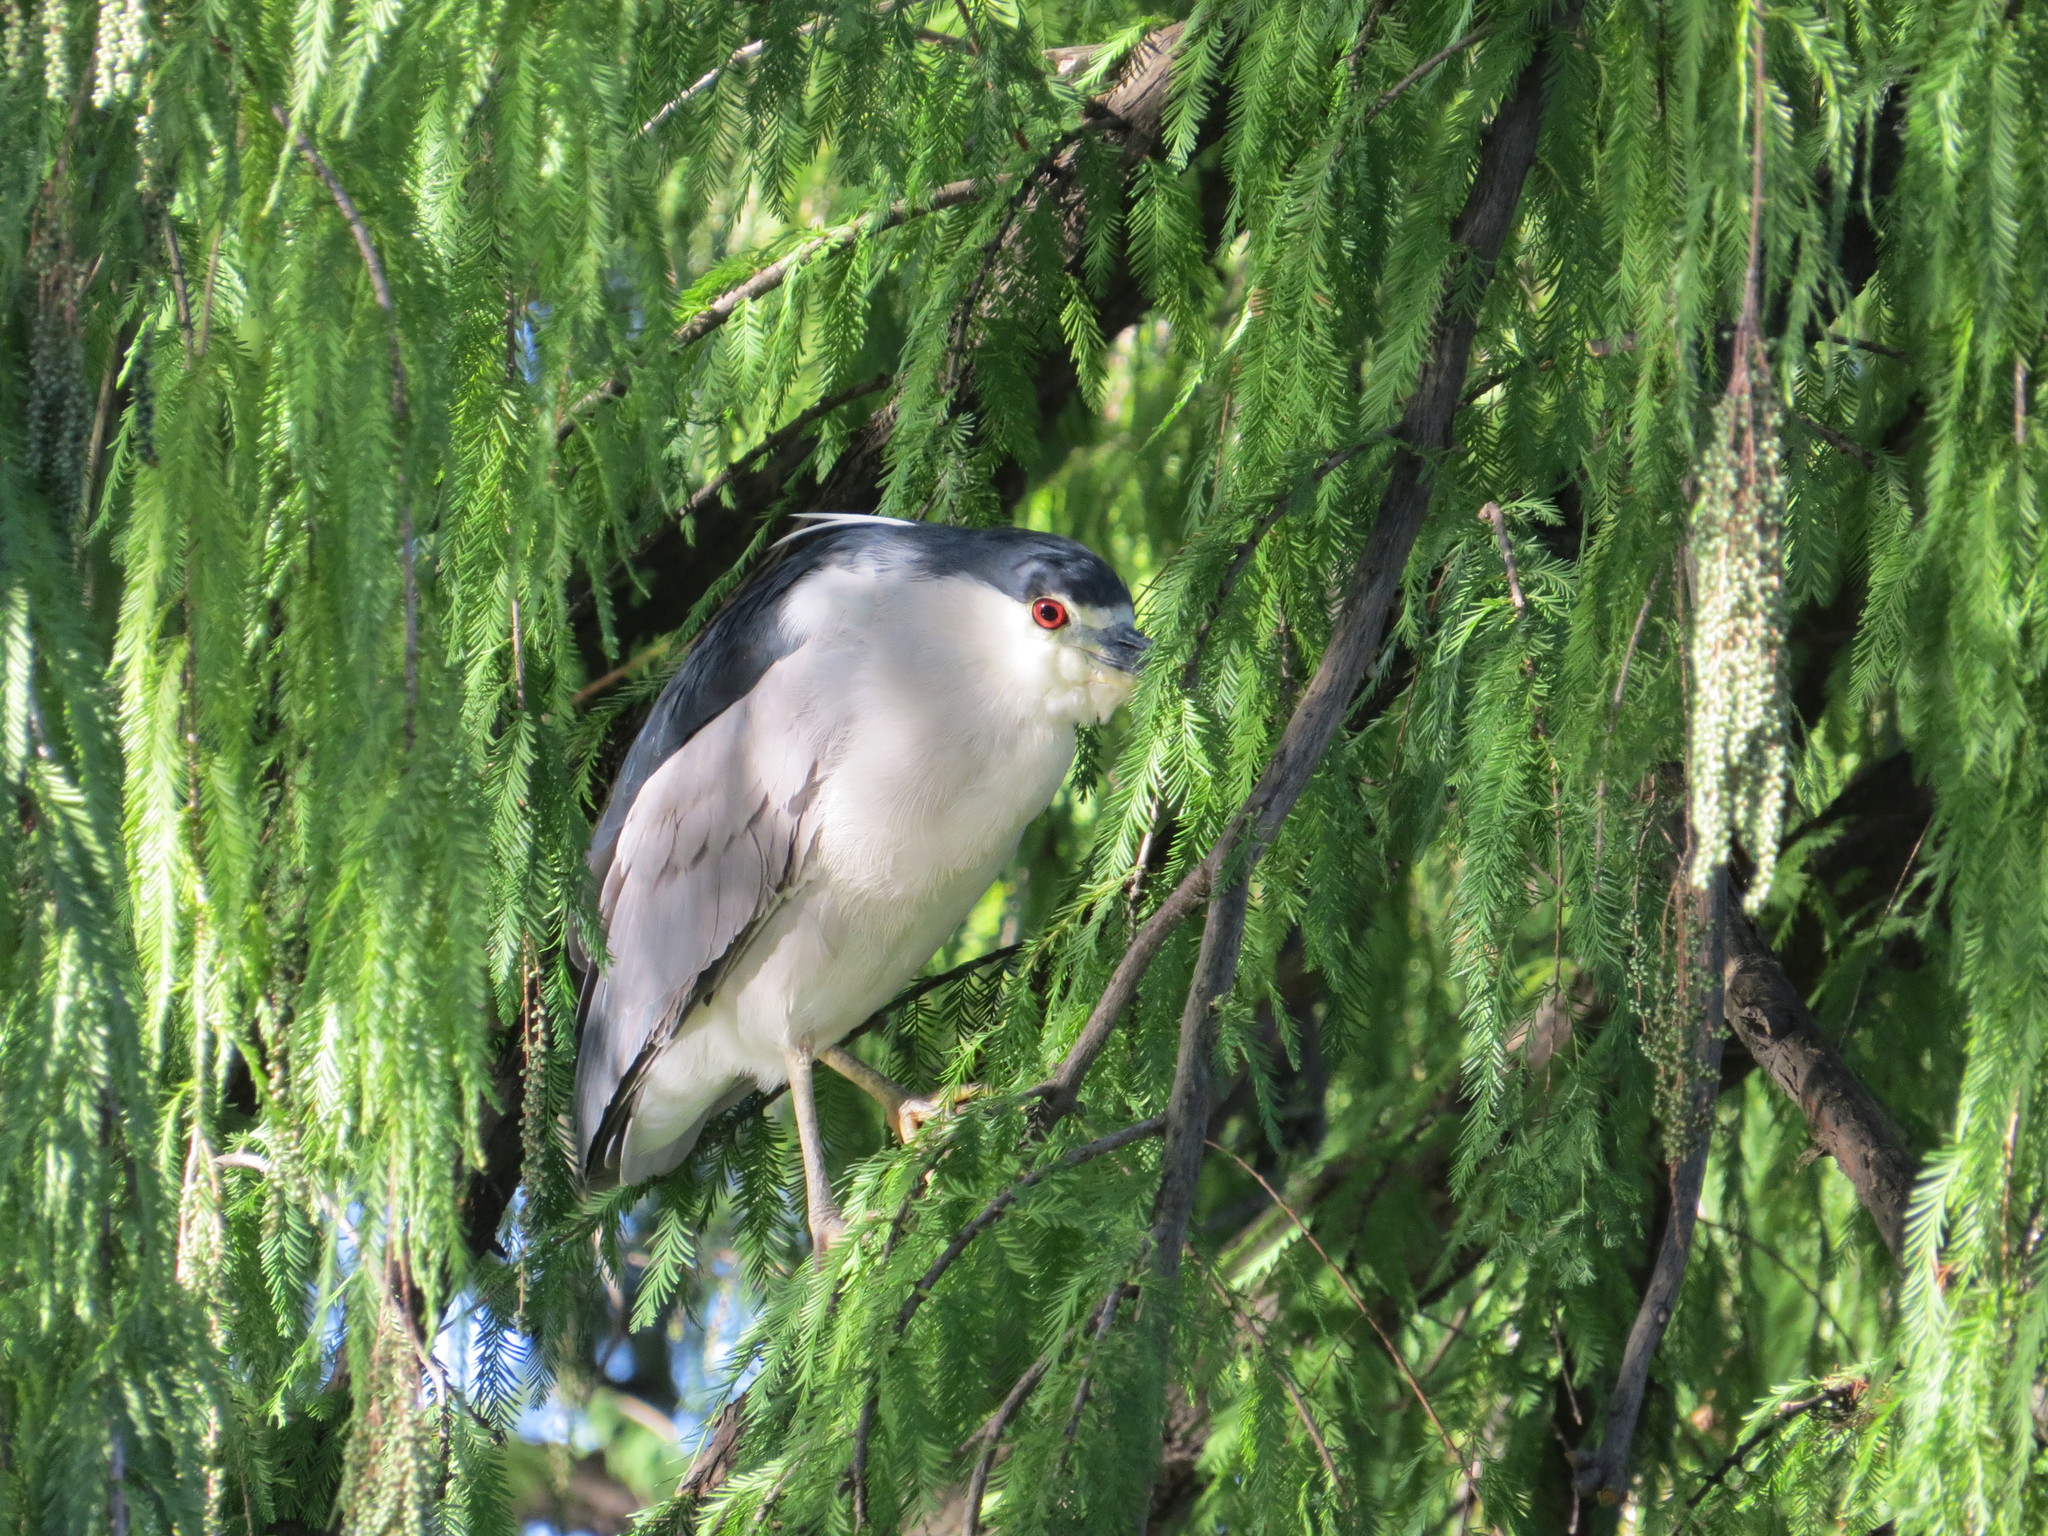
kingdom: Animalia
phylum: Chordata
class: Aves
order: Pelecaniformes
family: Ardeidae
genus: Nycticorax
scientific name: Nycticorax nycticorax
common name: Black-crowned night heron
